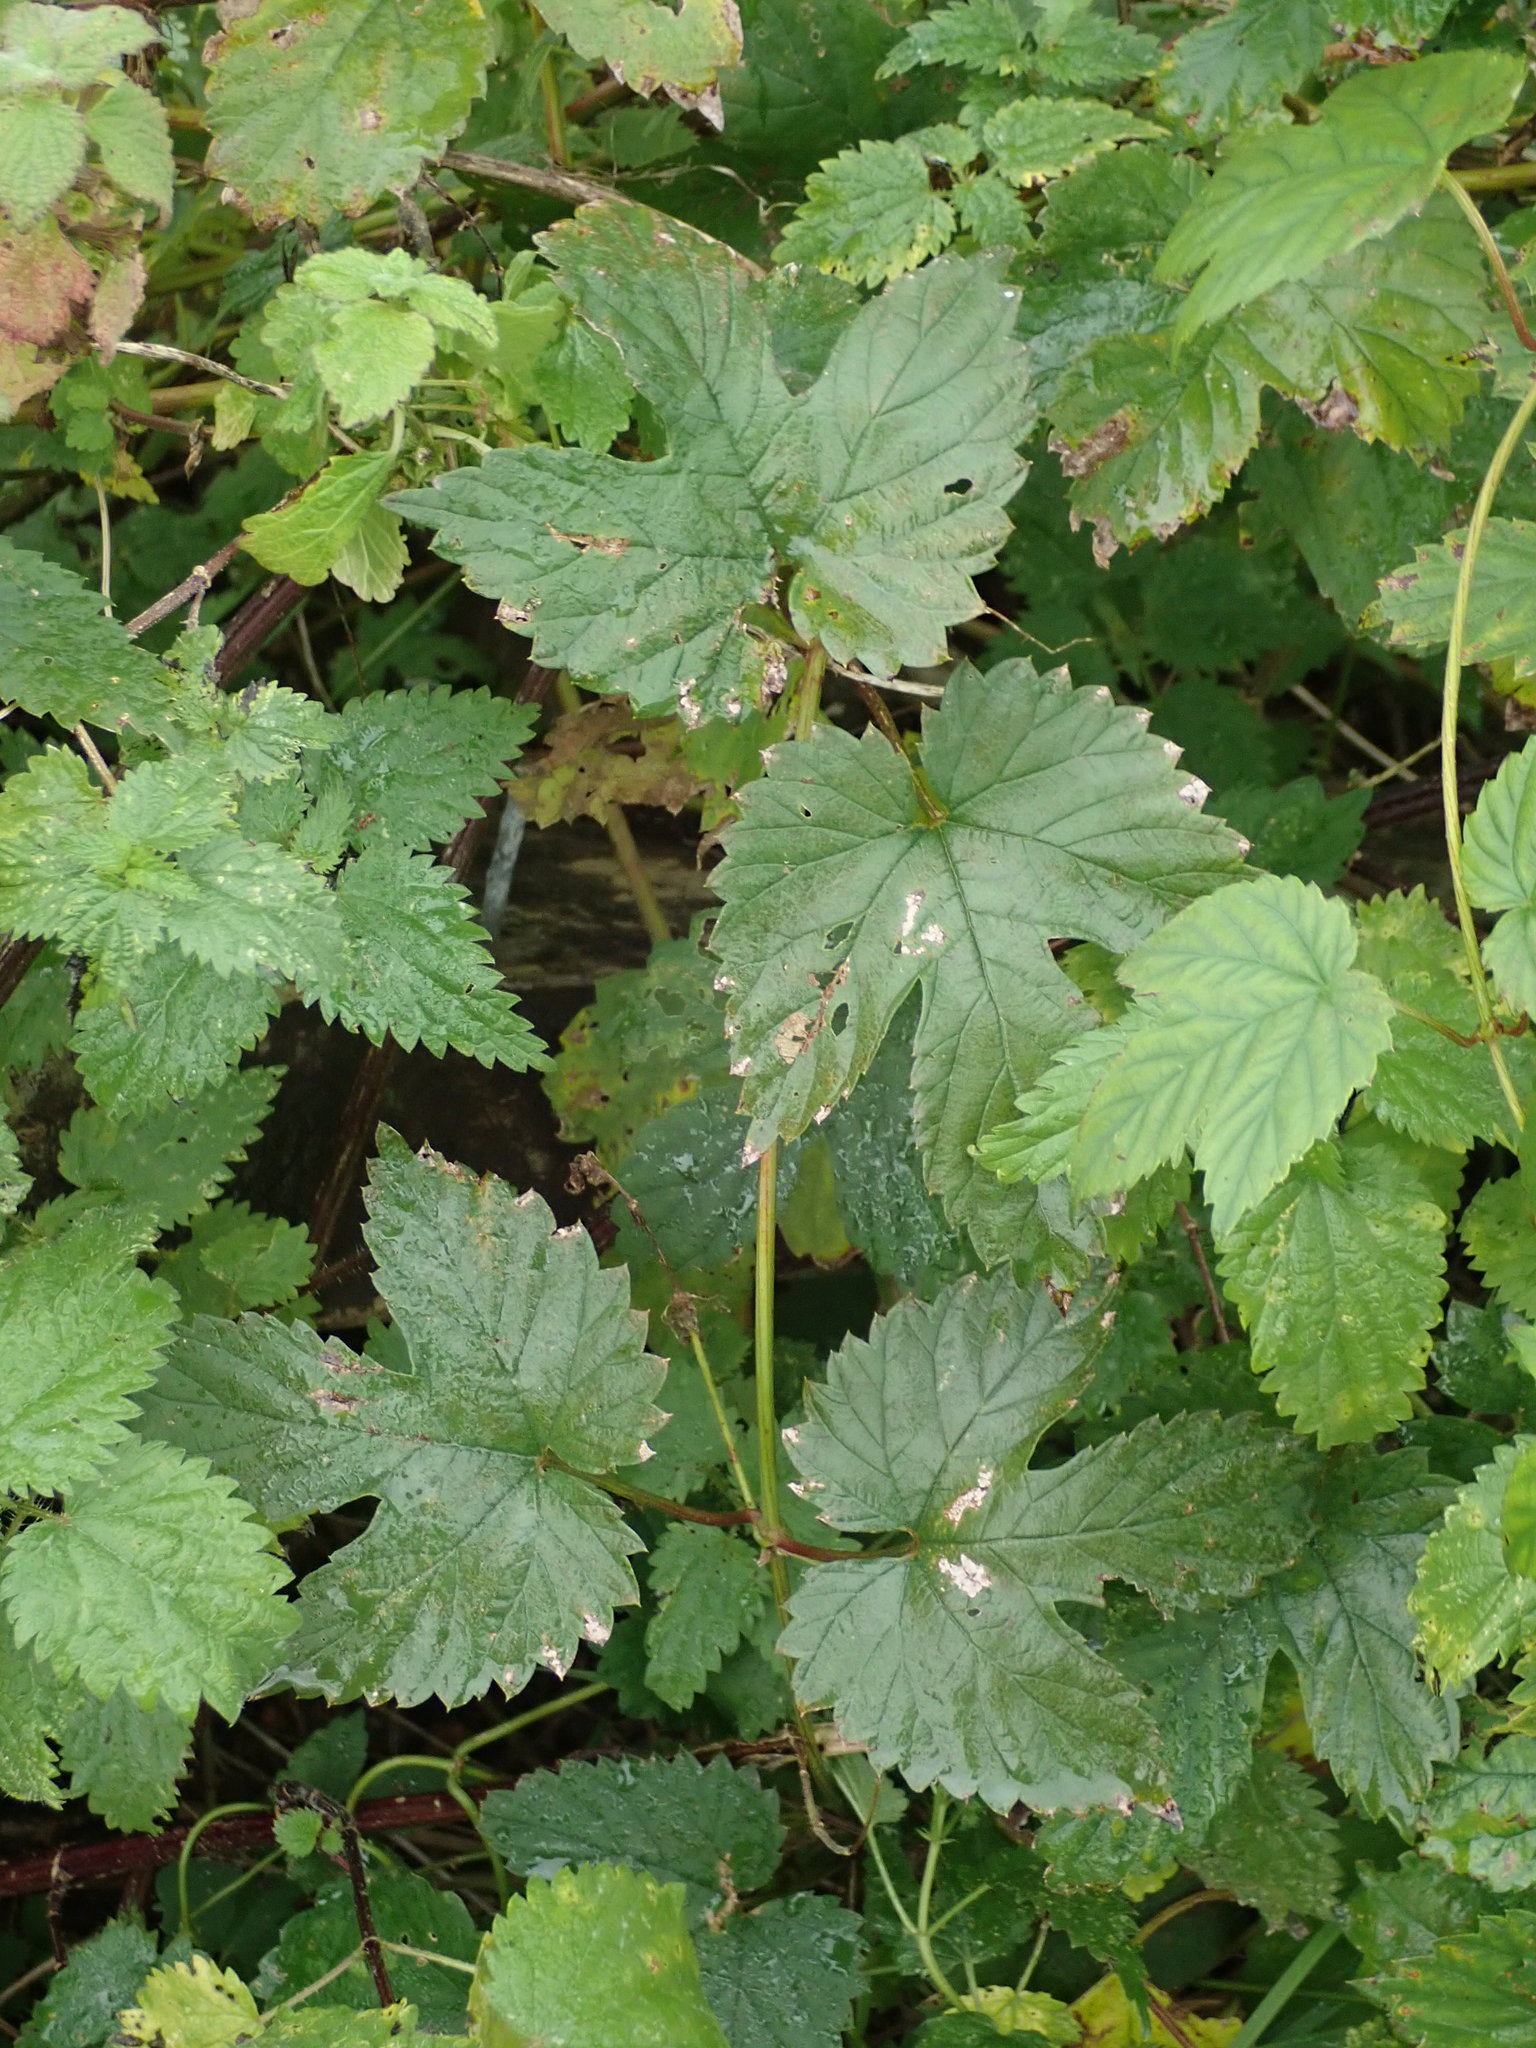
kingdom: Plantae
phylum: Tracheophyta
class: Magnoliopsida
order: Rosales
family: Cannabaceae
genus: Humulus
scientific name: Humulus lupulus
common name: Hop
